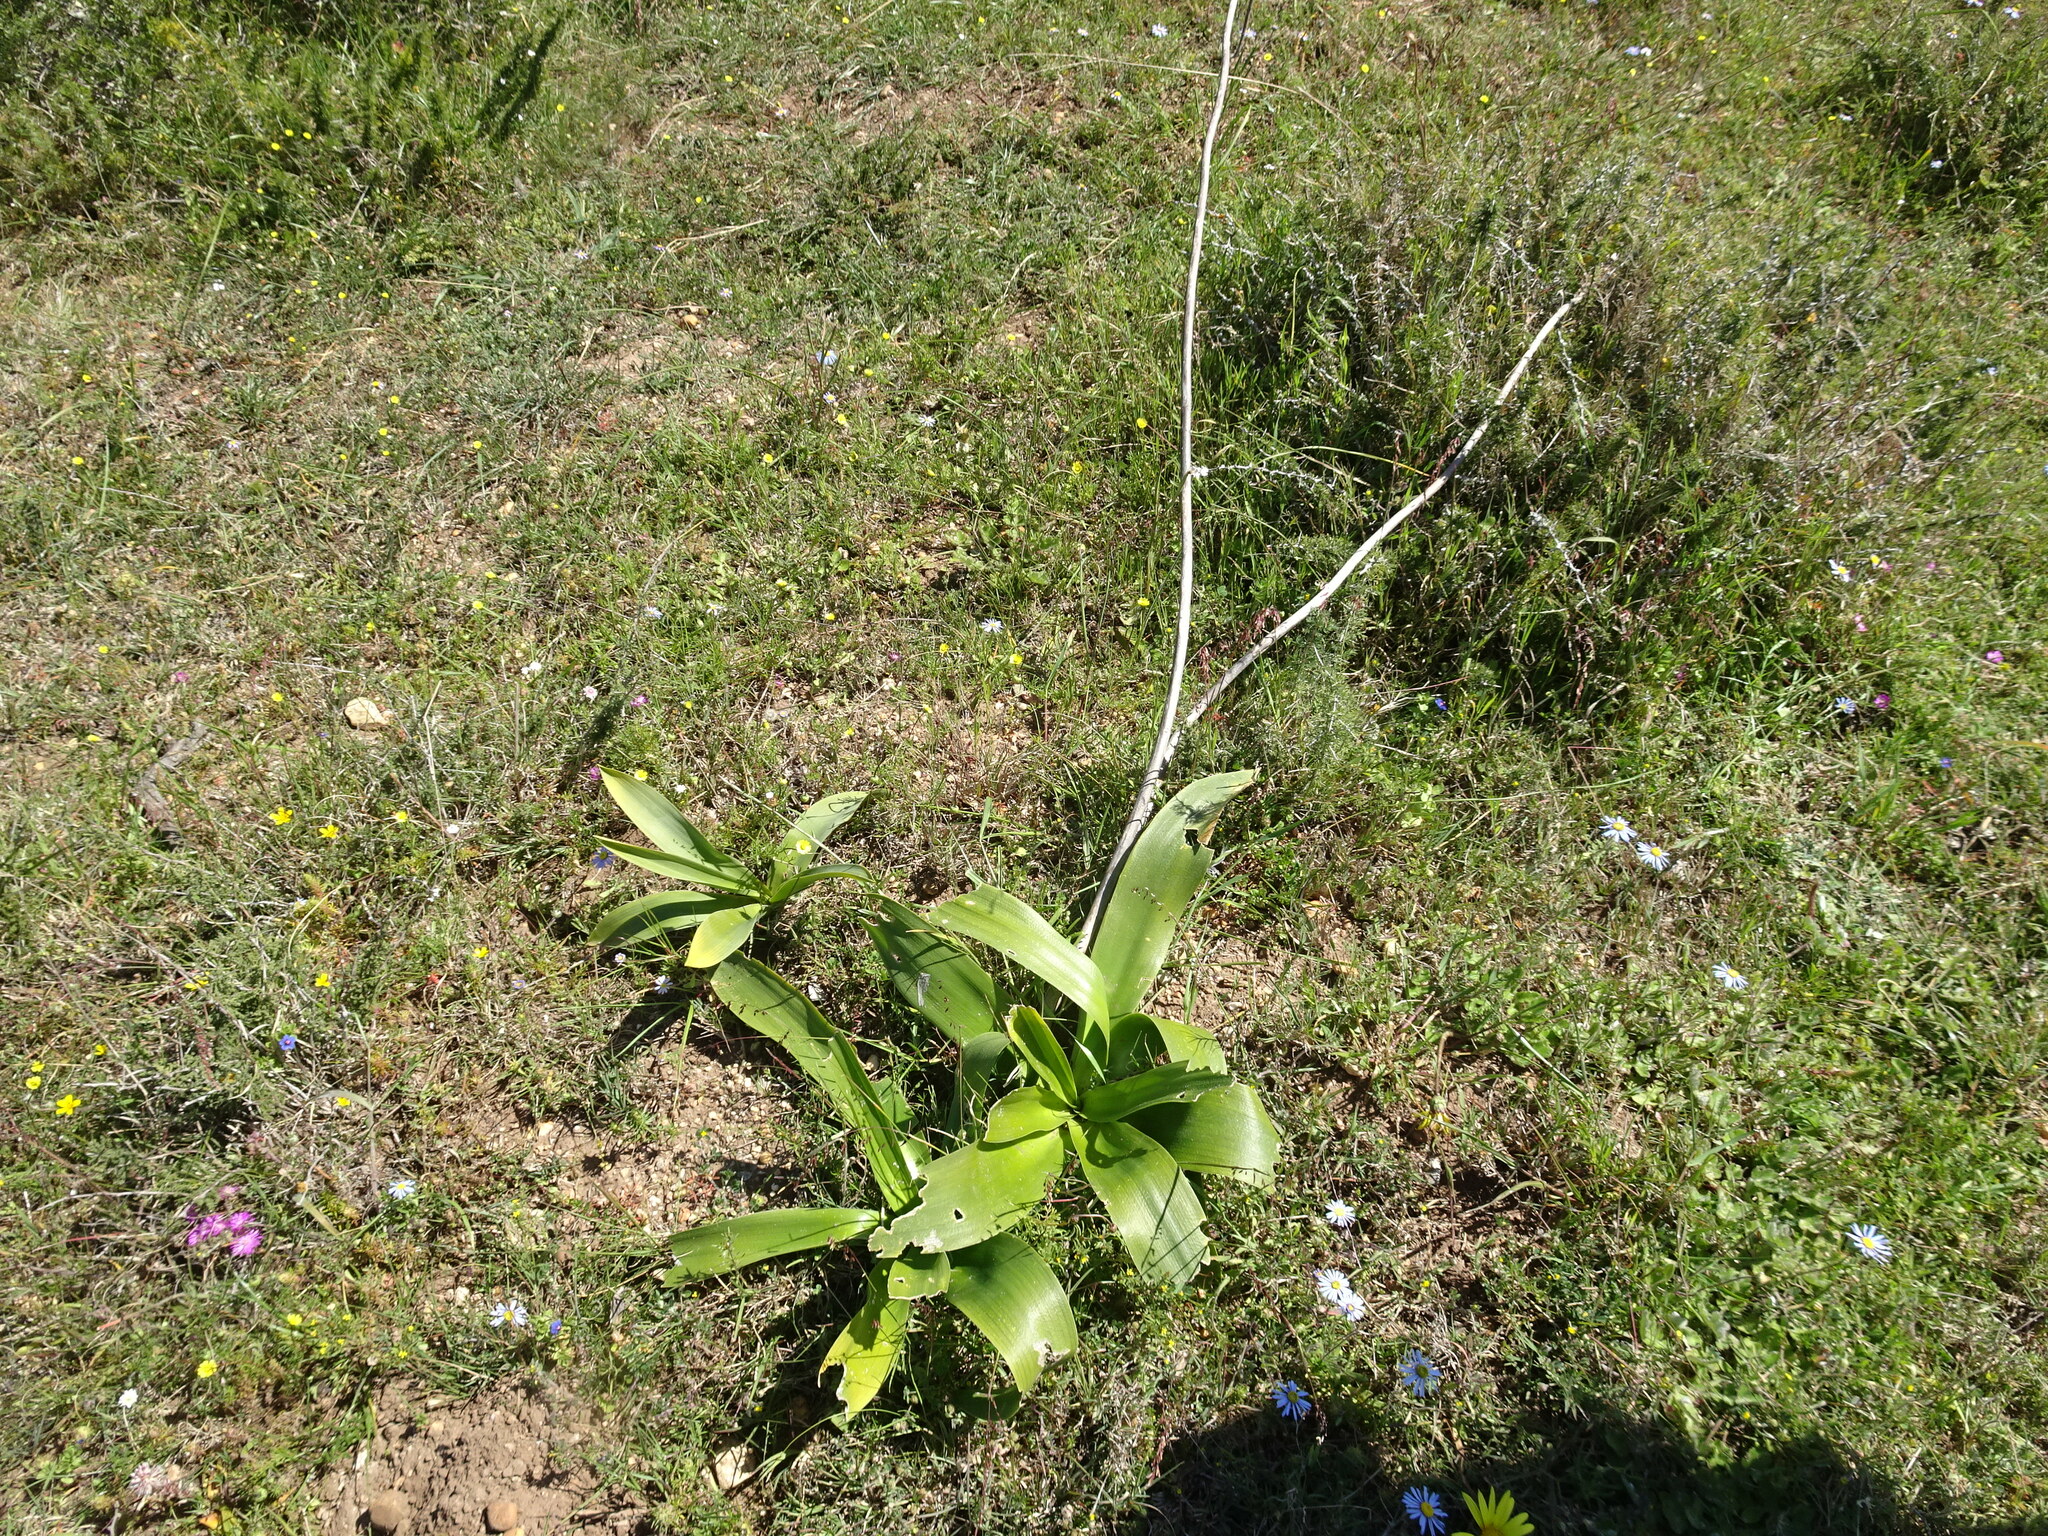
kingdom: Plantae
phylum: Tracheophyta
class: Liliopsida
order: Asparagales
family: Asparagaceae
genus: Drimia
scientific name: Drimia capensis
